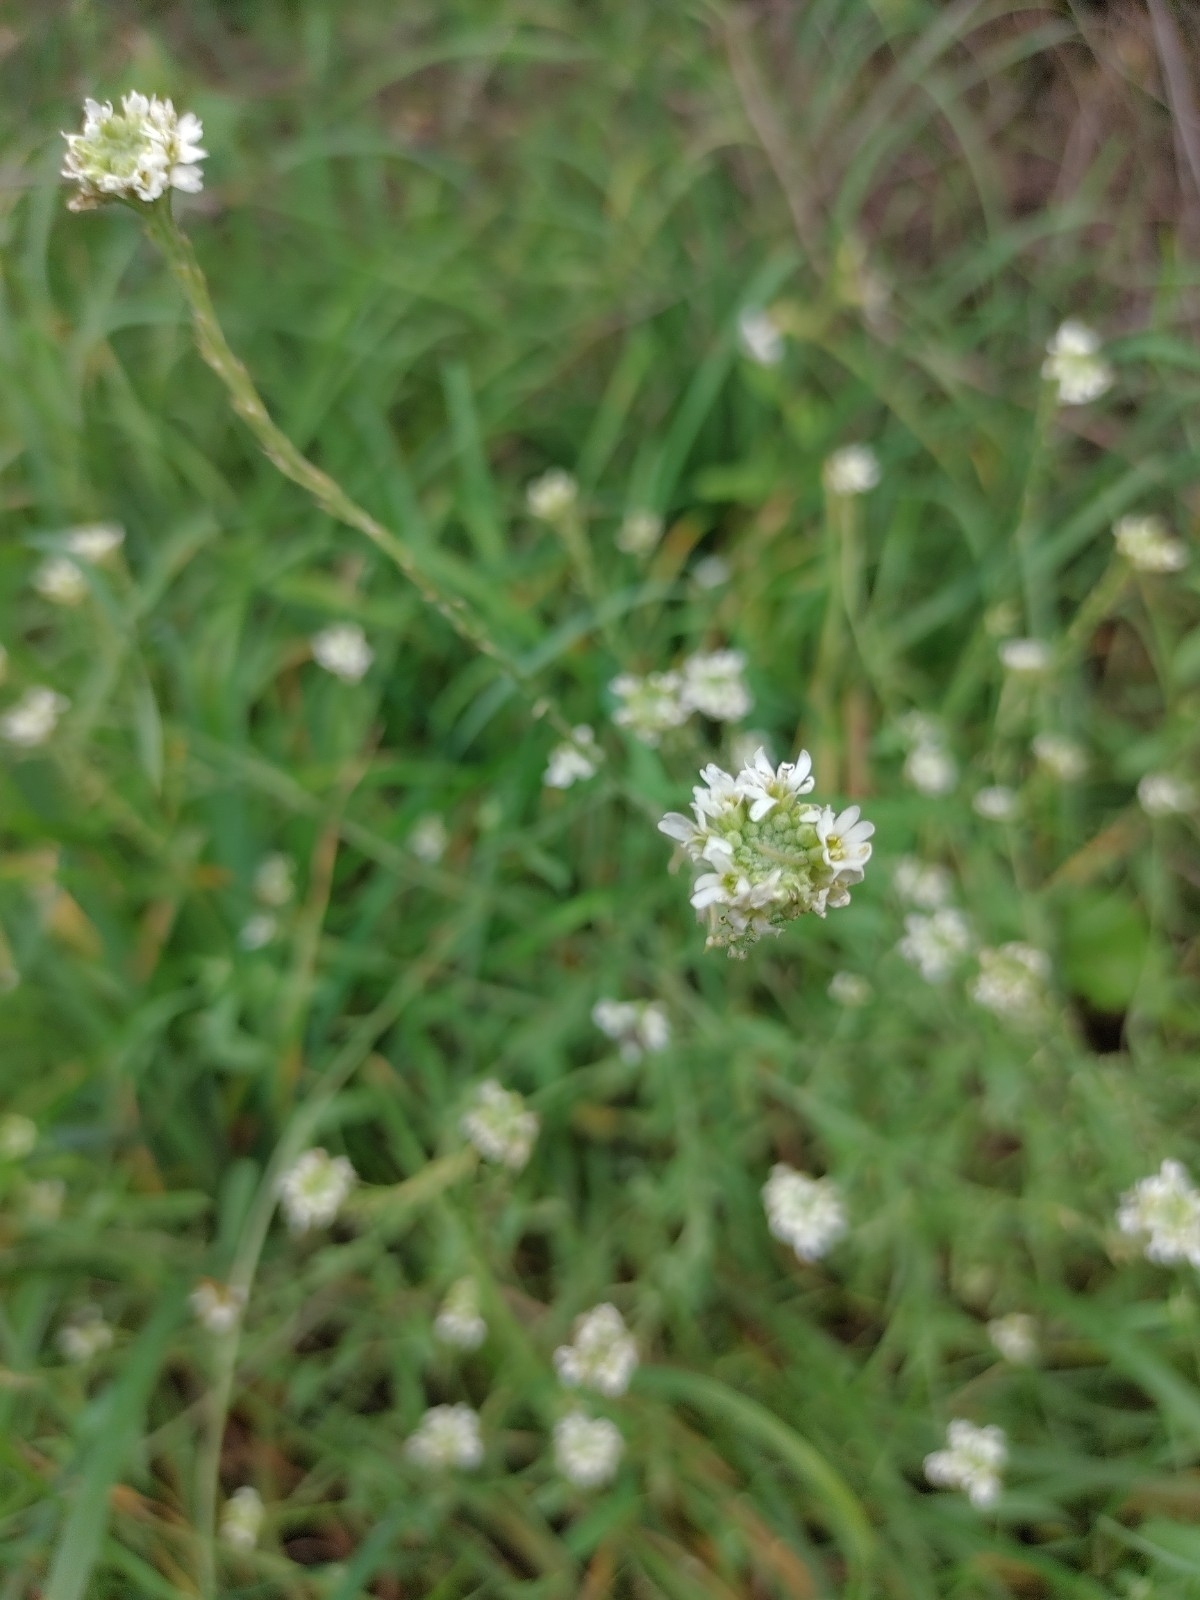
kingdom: Plantae
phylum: Tracheophyta
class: Magnoliopsida
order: Brassicales
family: Brassicaceae
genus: Berteroa
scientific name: Berteroa incana
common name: Hoary alison
